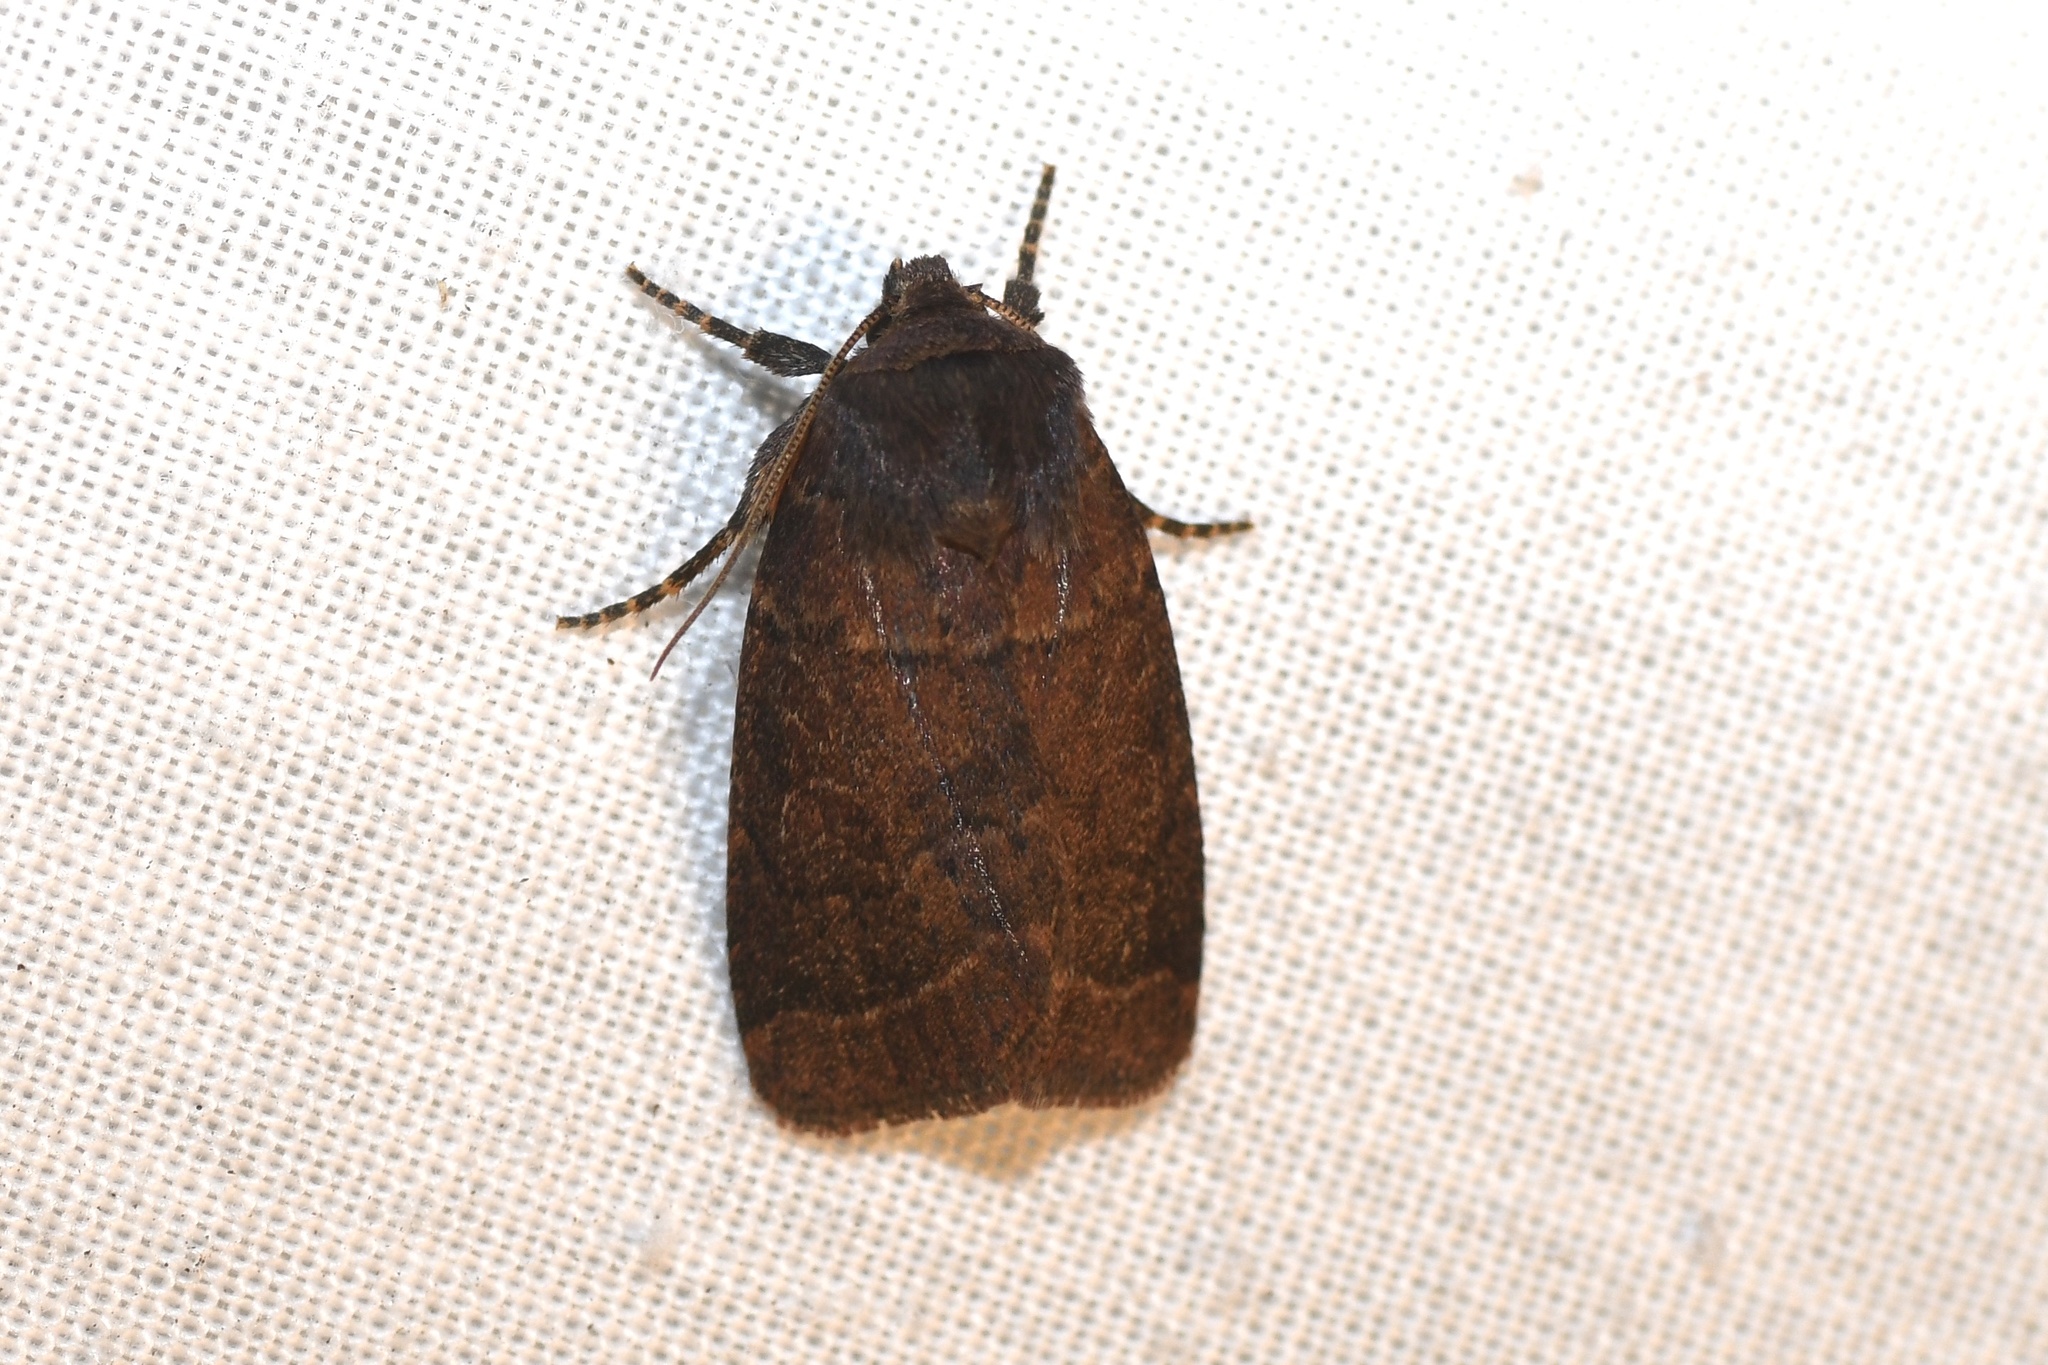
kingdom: Animalia
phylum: Arthropoda
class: Insecta
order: Lepidoptera
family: Noctuidae
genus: Orthodes
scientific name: Orthodes cynica
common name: Cynical quaker
